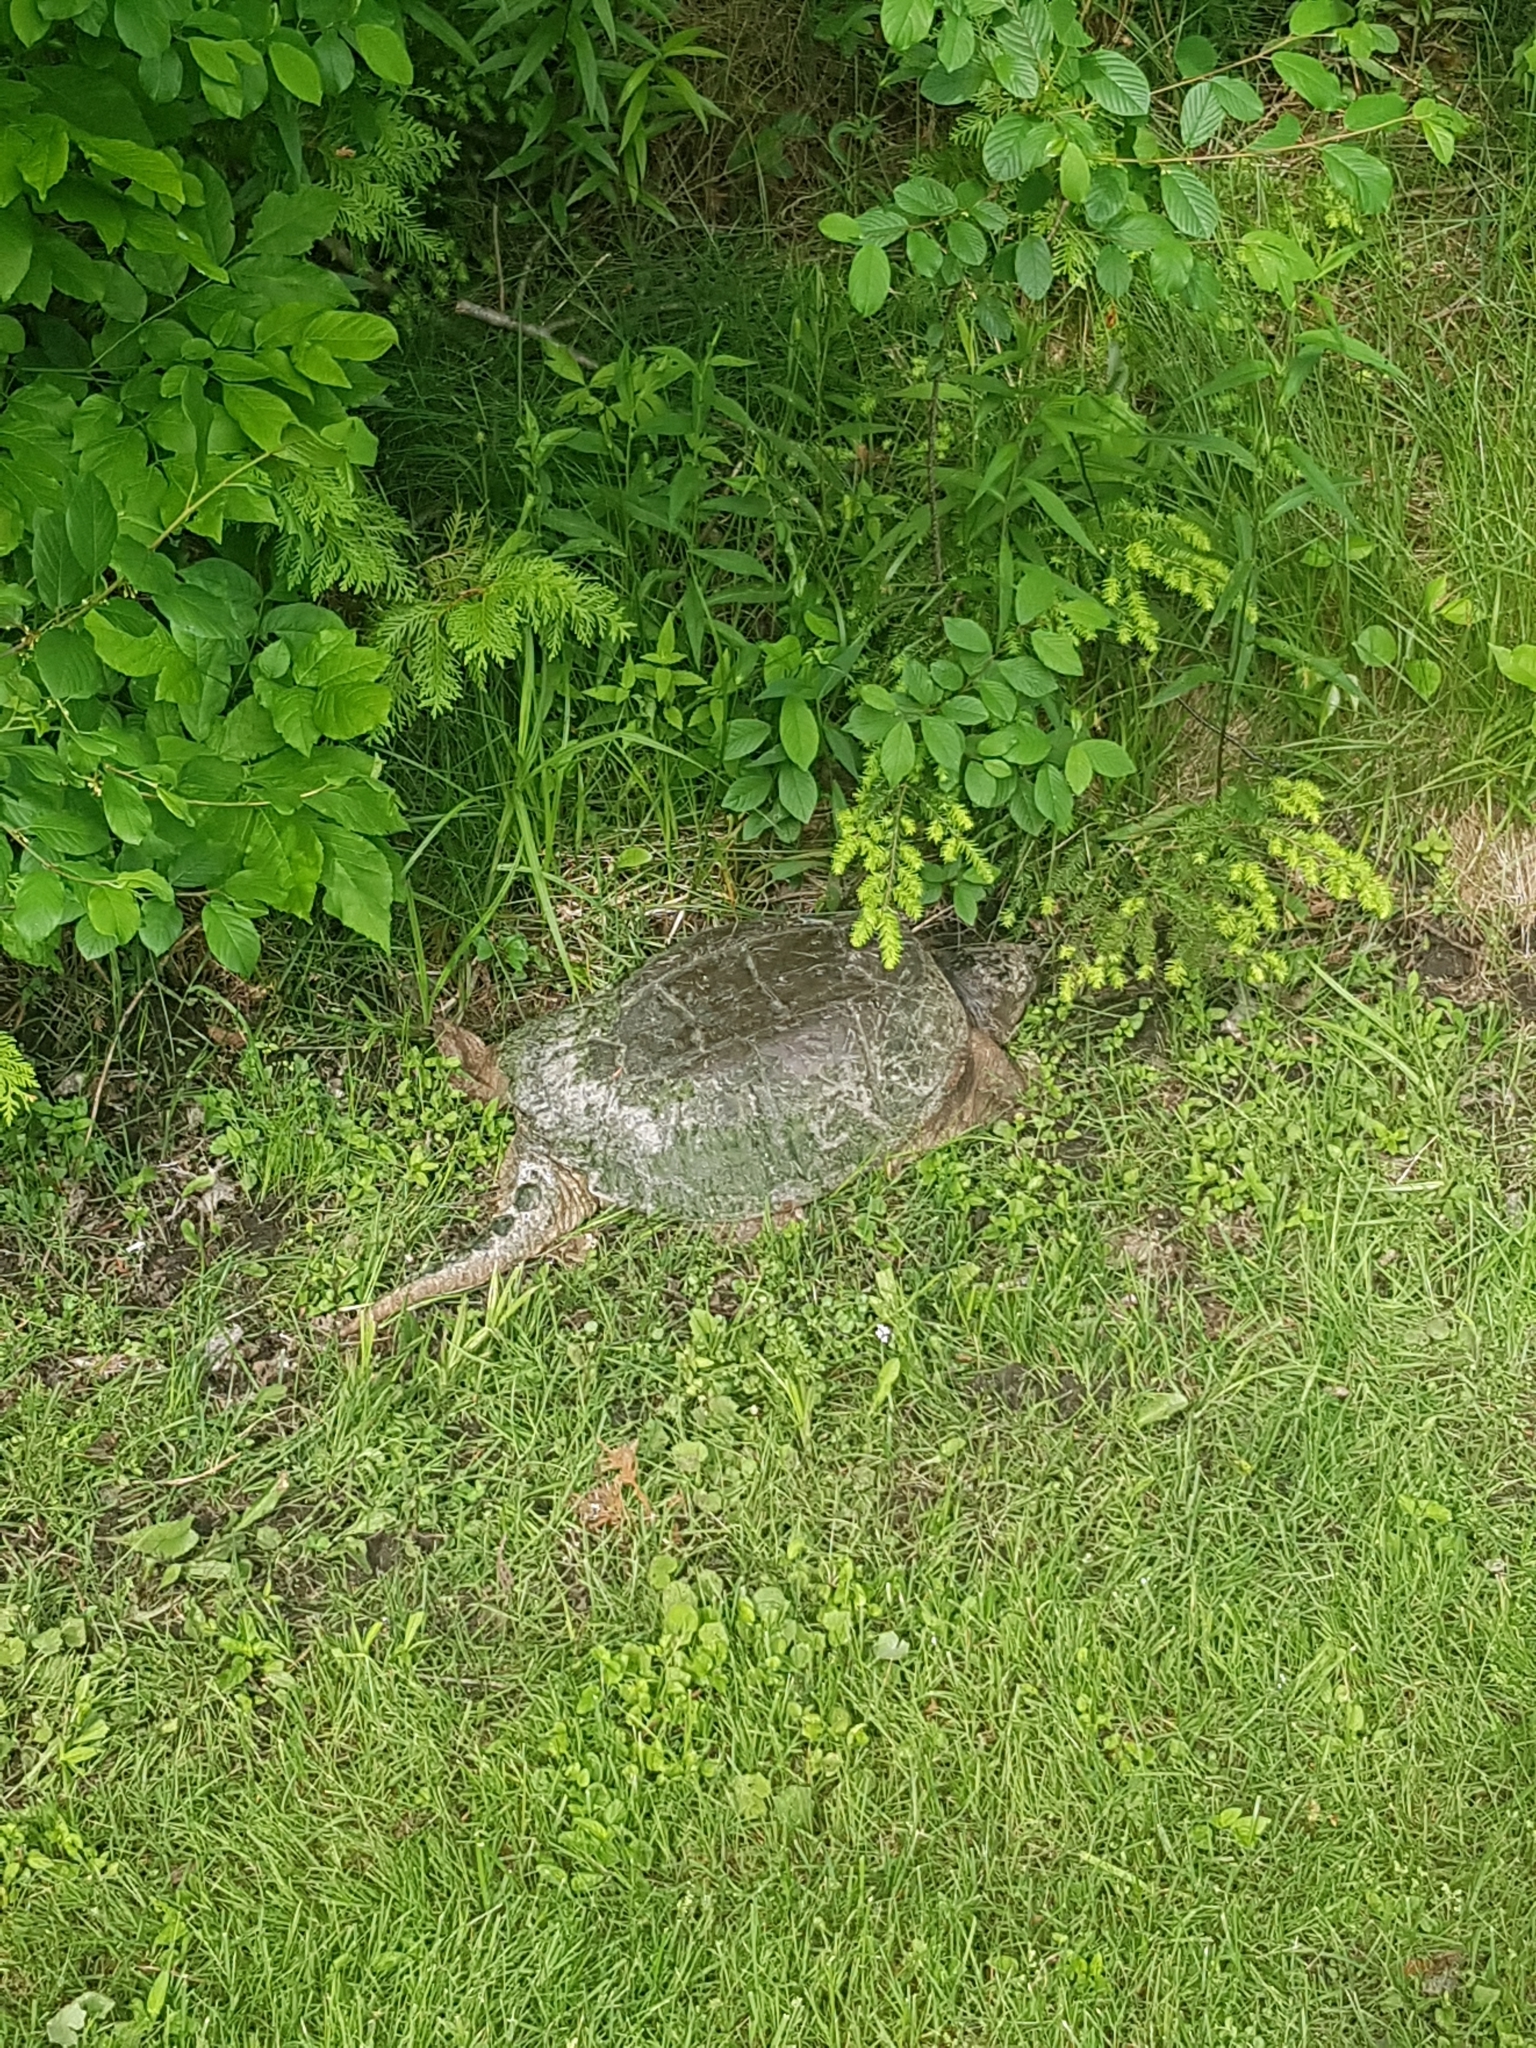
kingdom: Animalia
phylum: Chordata
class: Testudines
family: Chelydridae
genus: Chelydra
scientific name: Chelydra serpentina
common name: Common snapping turtle
